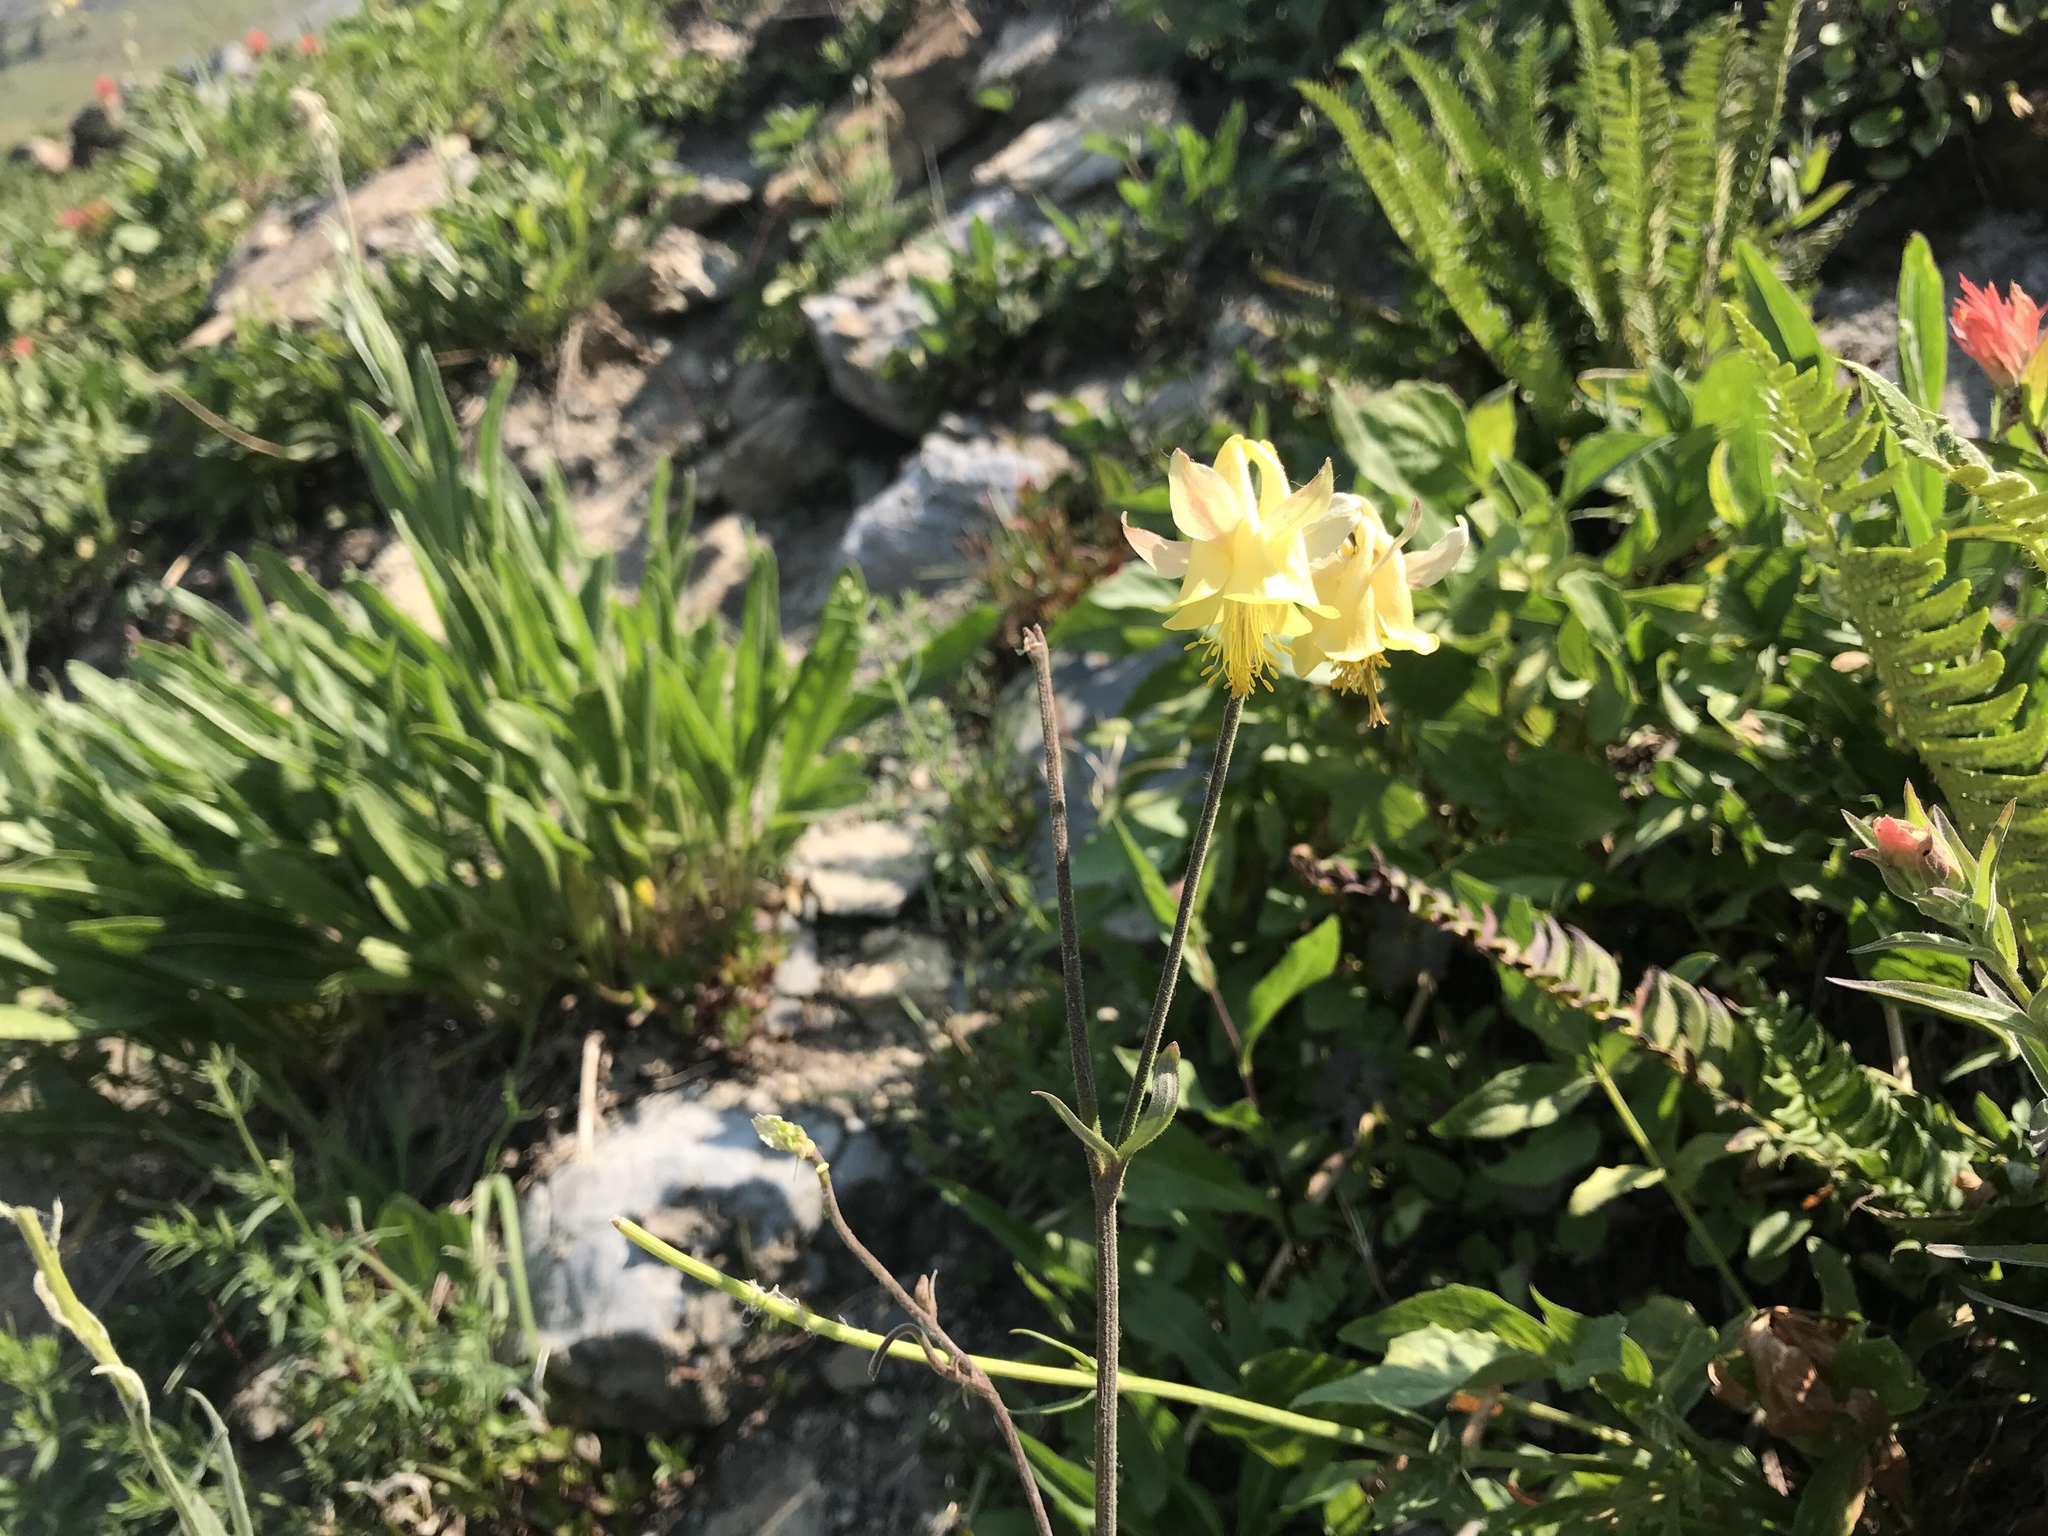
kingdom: Plantae
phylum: Tracheophyta
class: Magnoliopsida
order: Ranunculales
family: Ranunculaceae
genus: Aquilegia
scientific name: Aquilegia flavescens
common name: Yellow columbine
